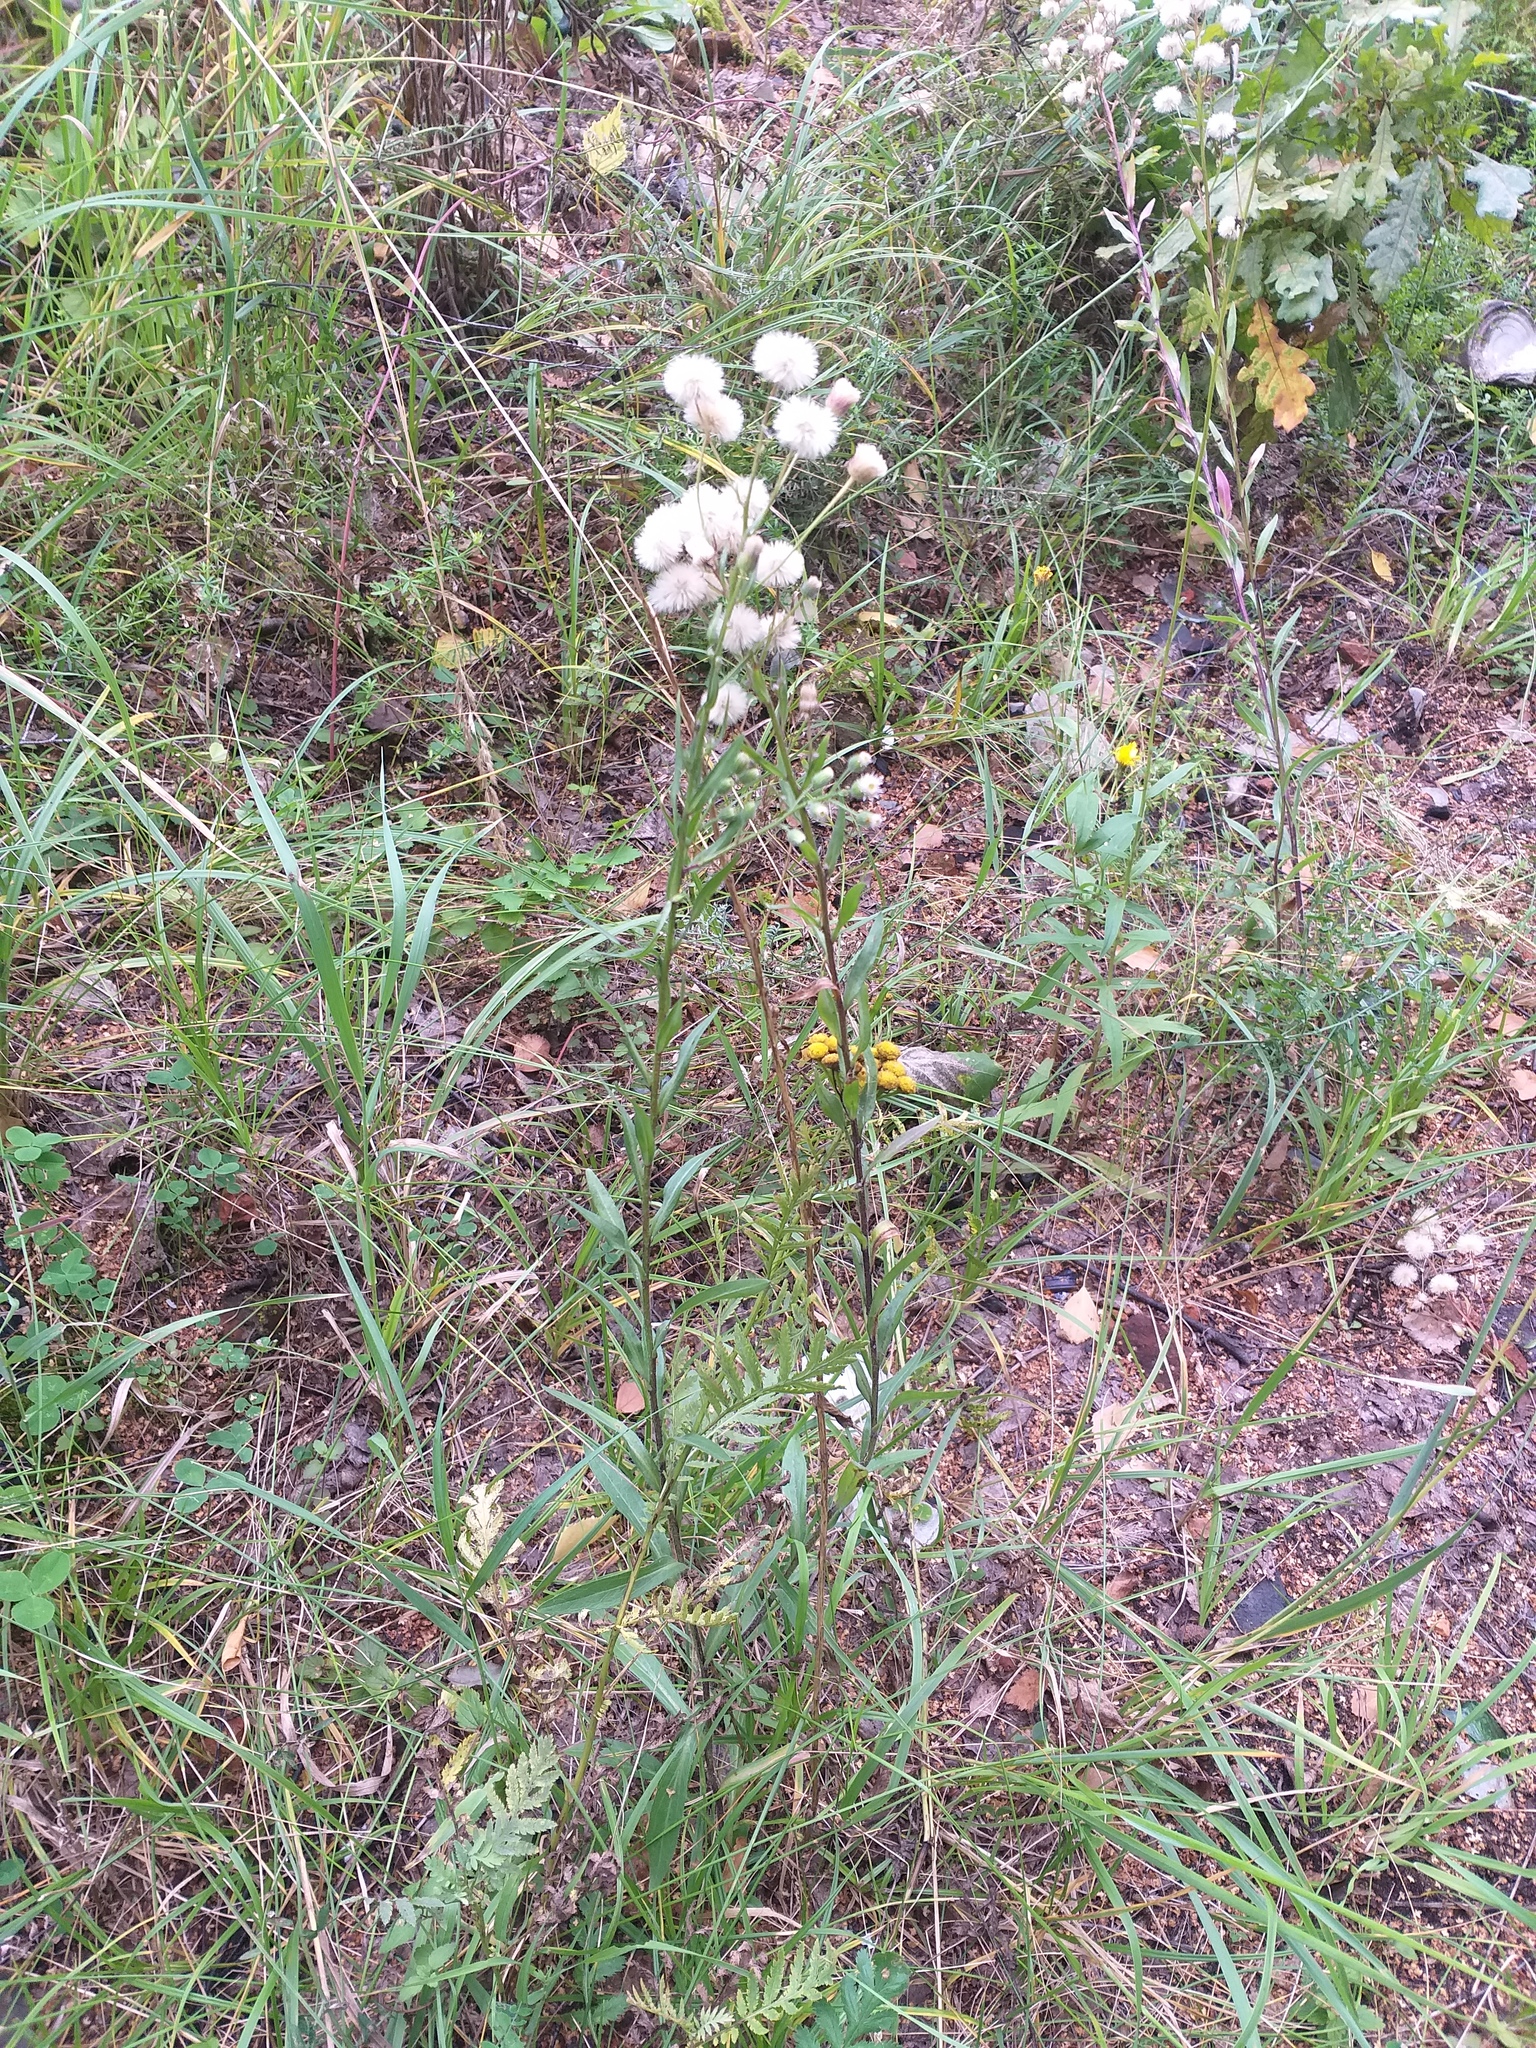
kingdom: Plantae
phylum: Tracheophyta
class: Magnoliopsida
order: Asterales
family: Asteraceae
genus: Erigeron
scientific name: Erigeron acris
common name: Blue fleabane
